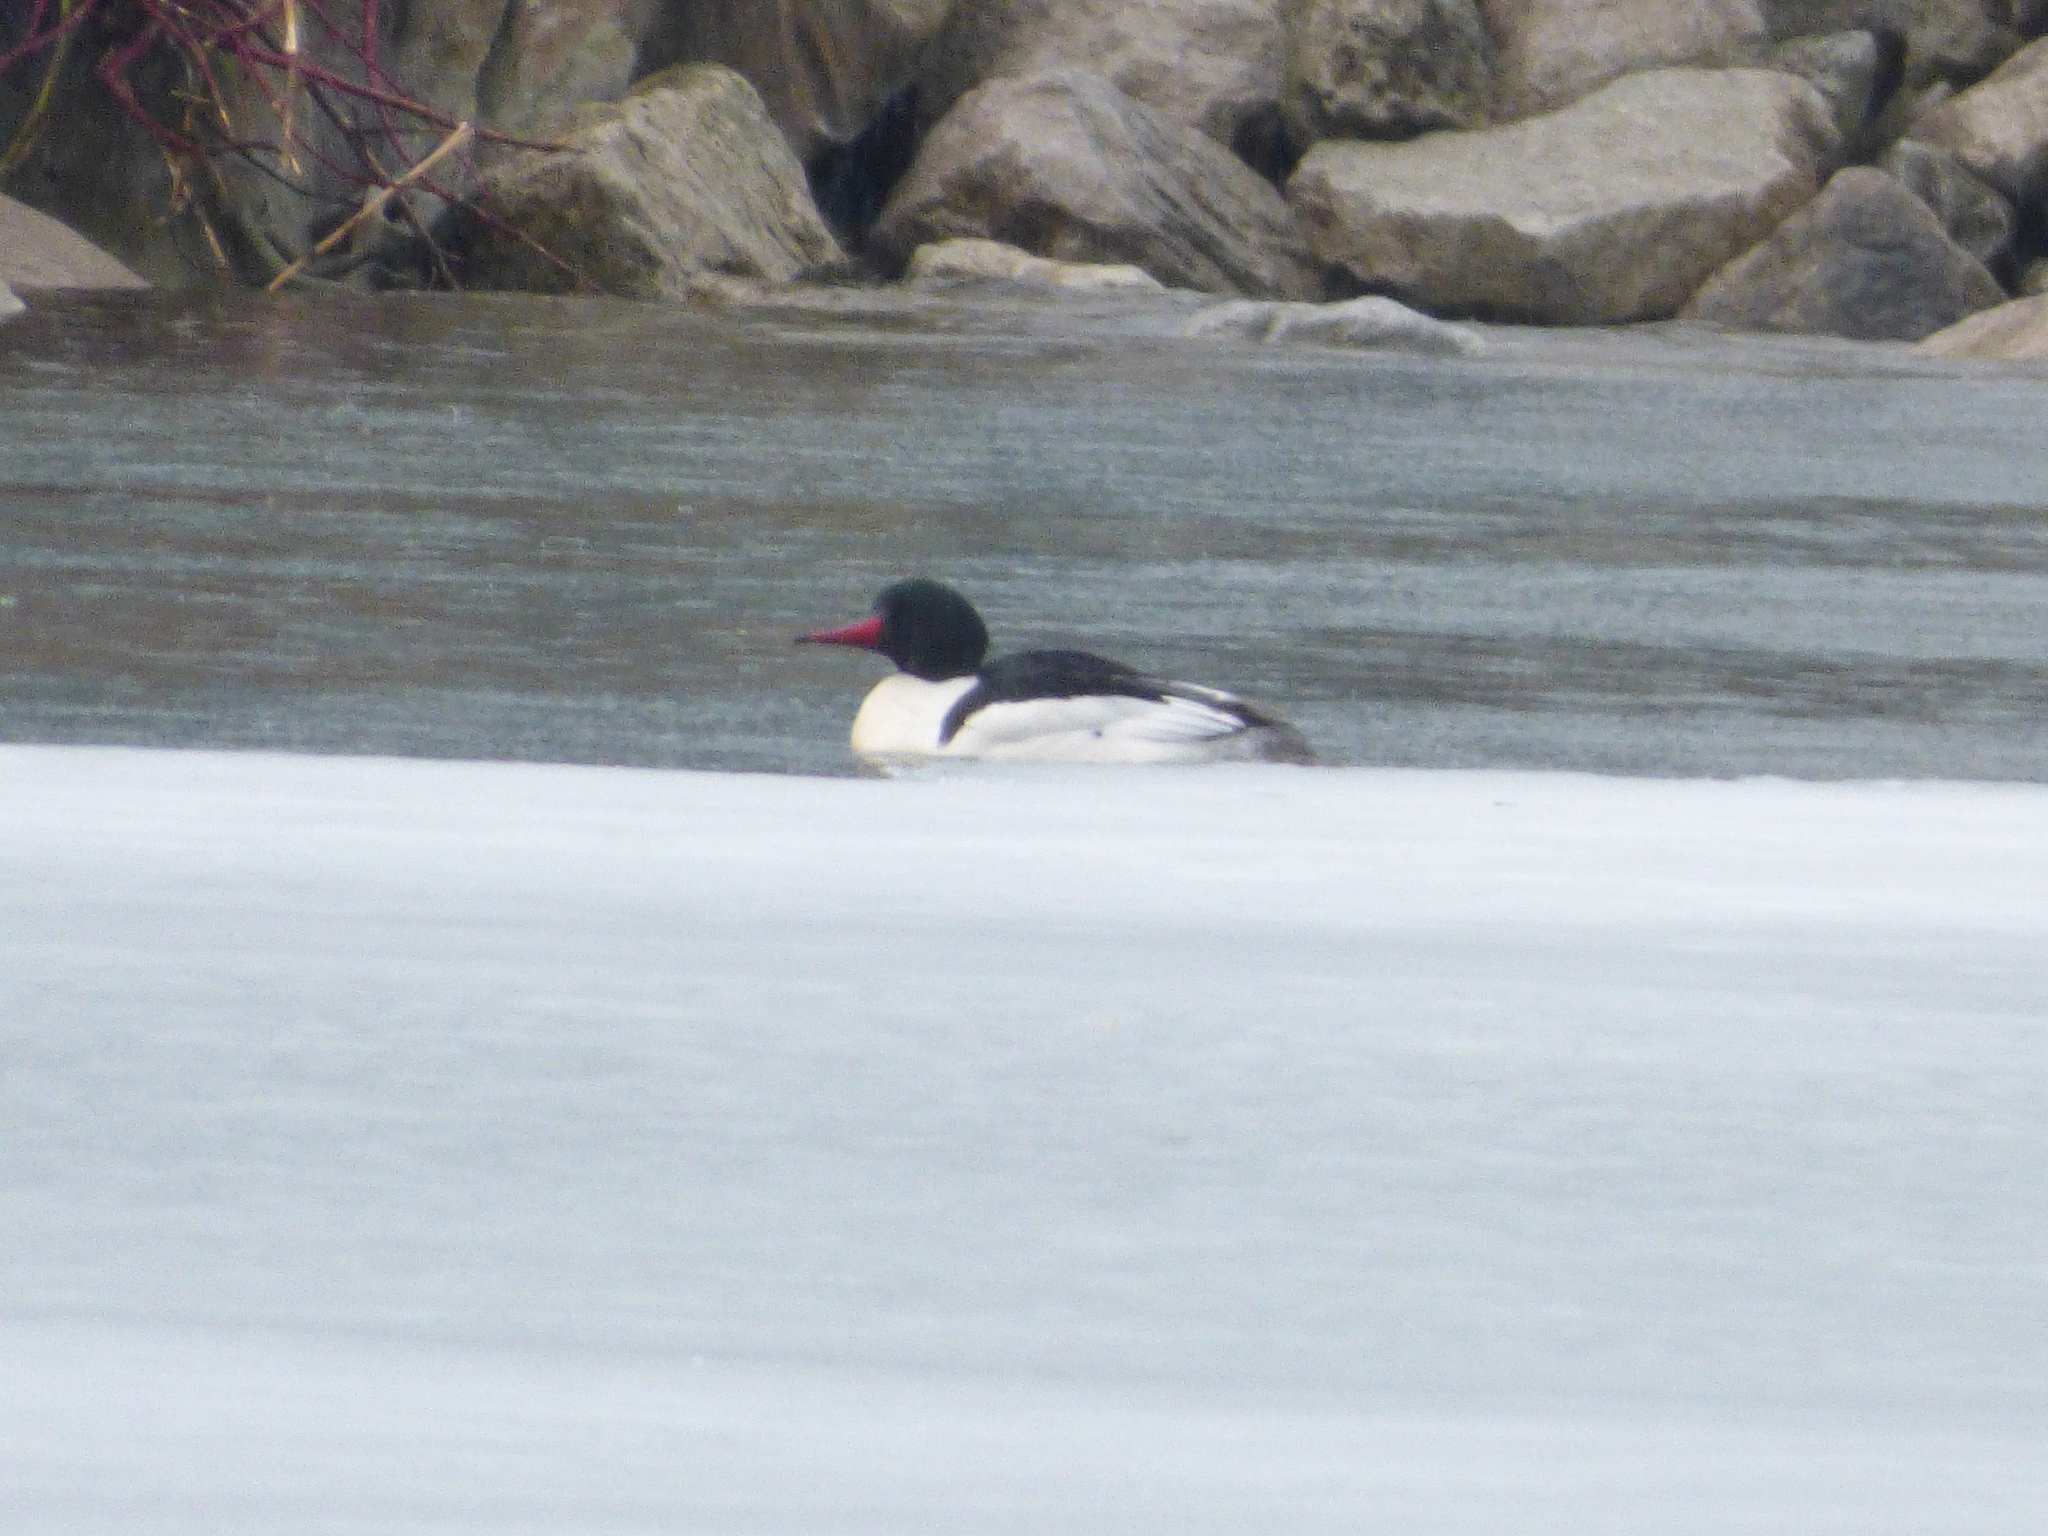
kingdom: Animalia
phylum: Chordata
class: Aves
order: Anseriformes
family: Anatidae
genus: Mergus
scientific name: Mergus merganser
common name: Common merganser
